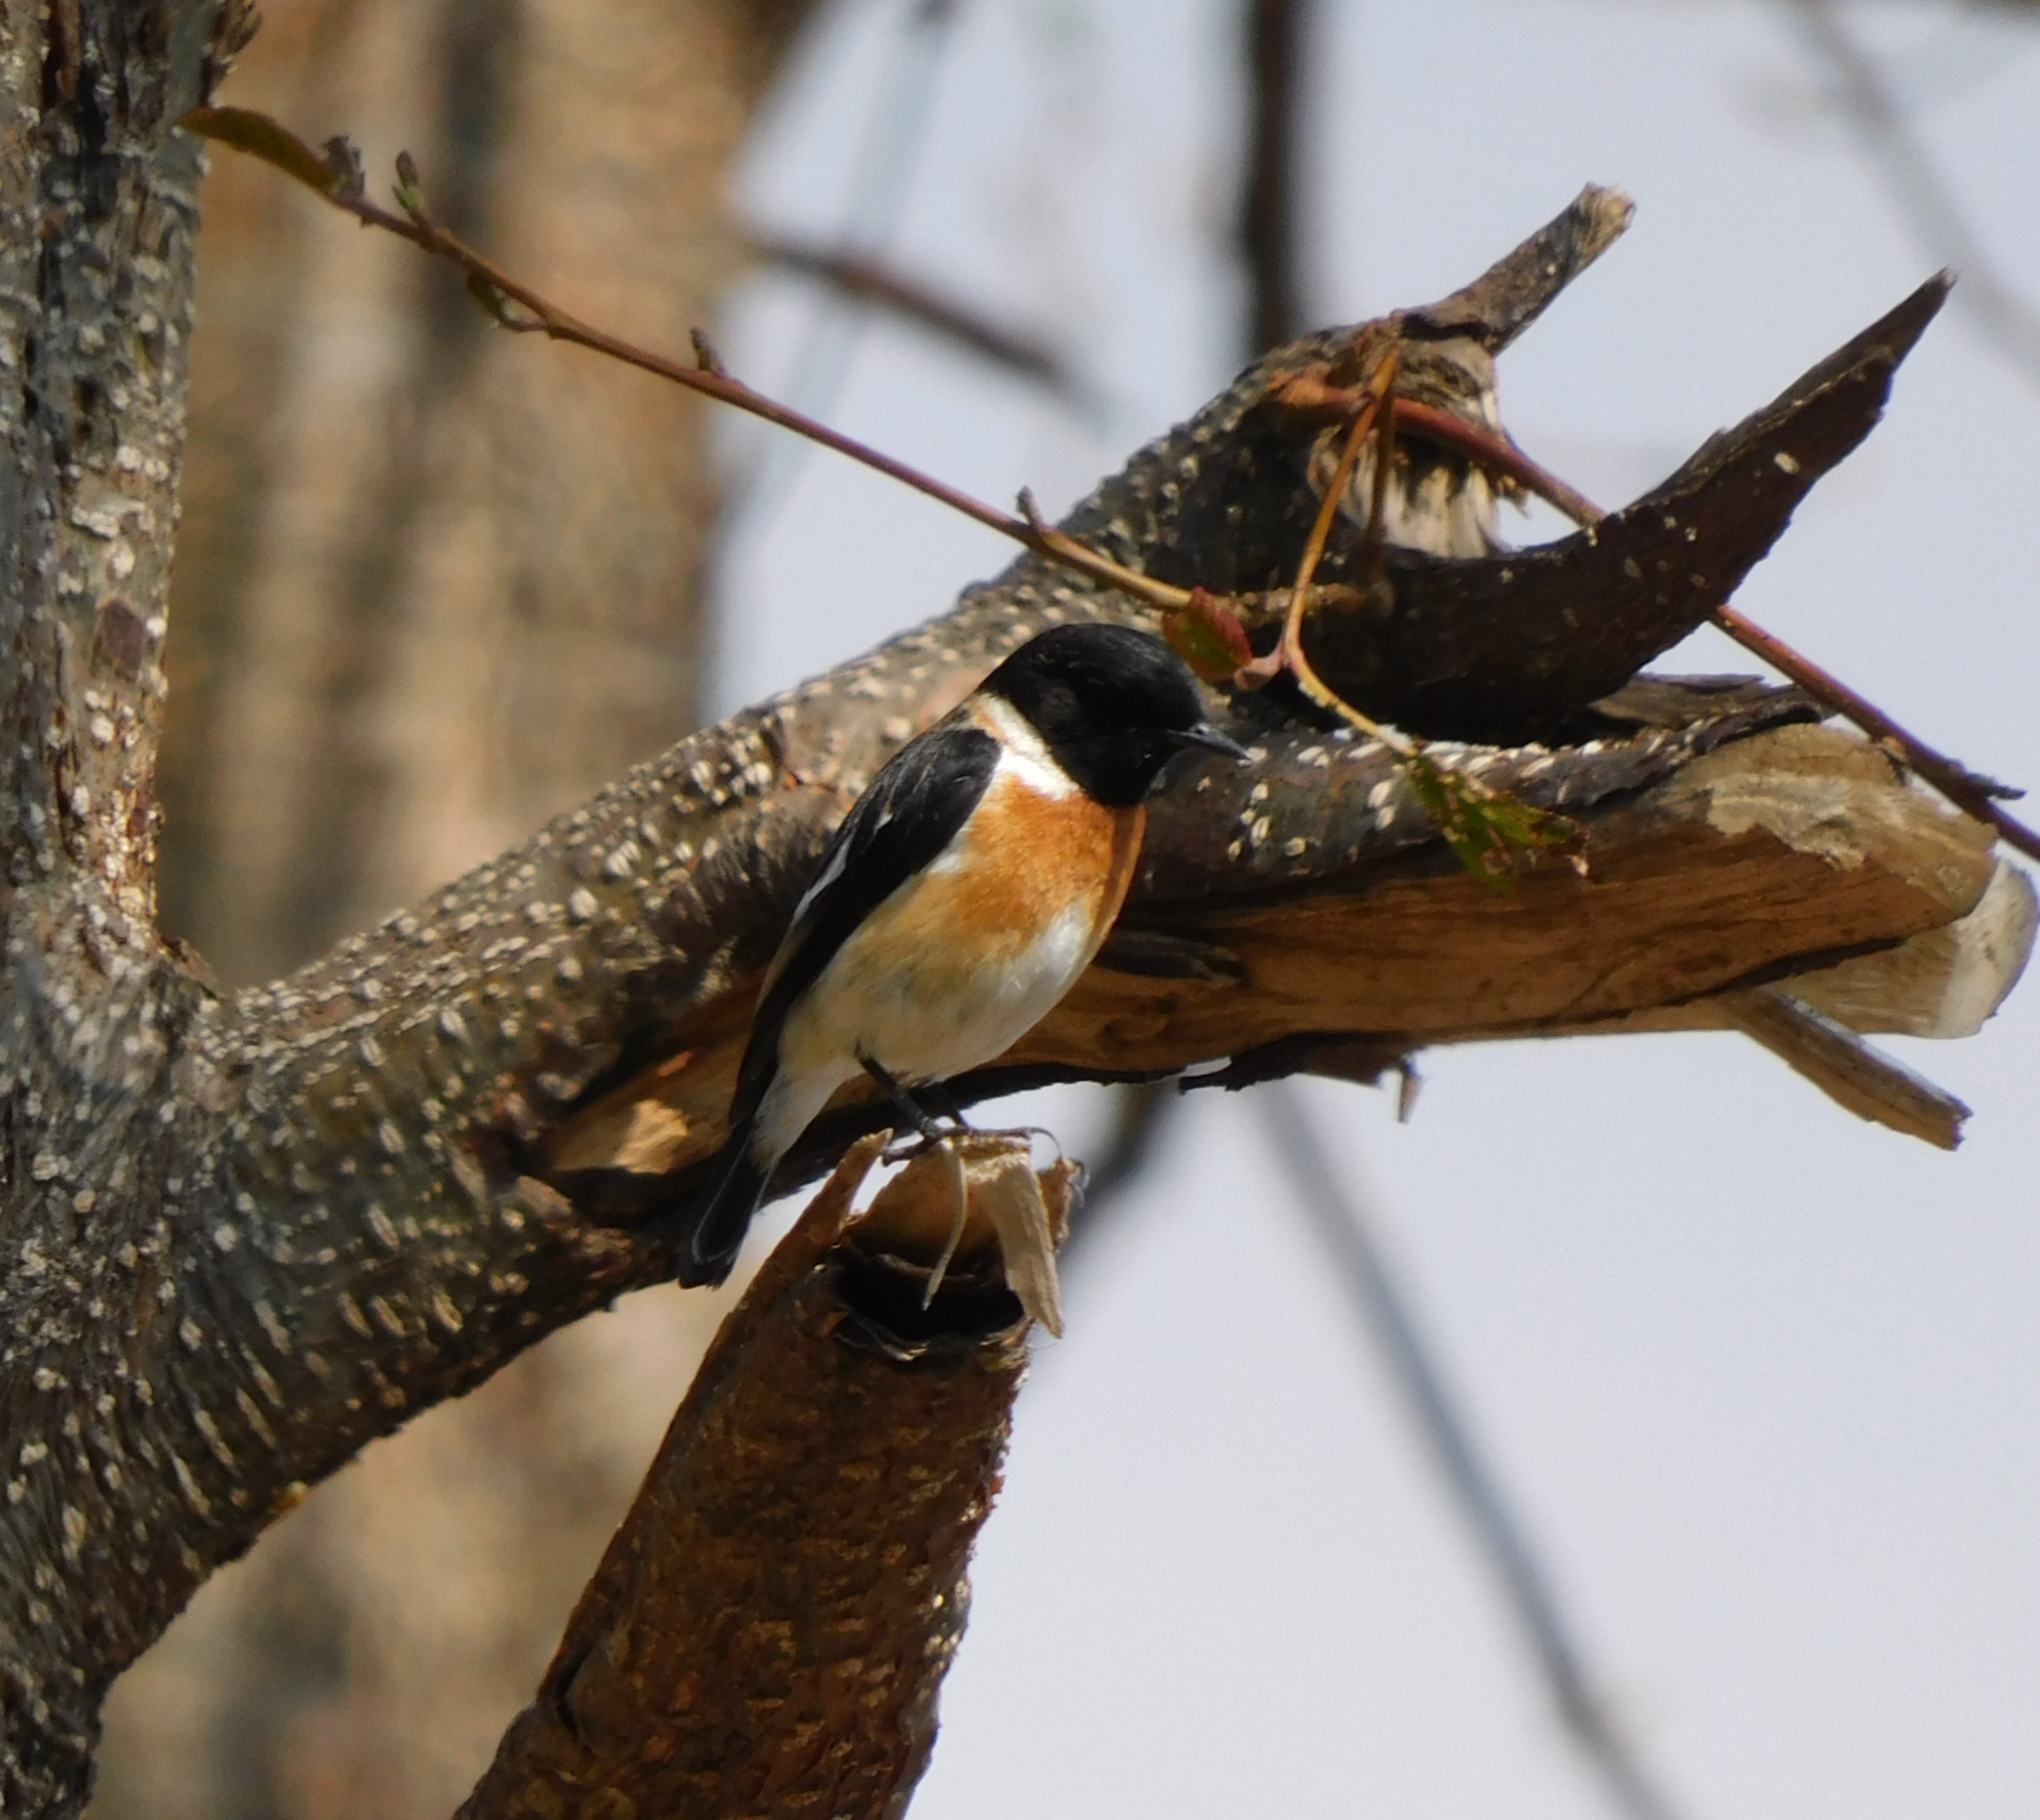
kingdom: Animalia
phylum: Chordata
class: Aves
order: Passeriformes
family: Muscicapidae
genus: Saxicola
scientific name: Saxicola maurus
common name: Siberian stonechat
